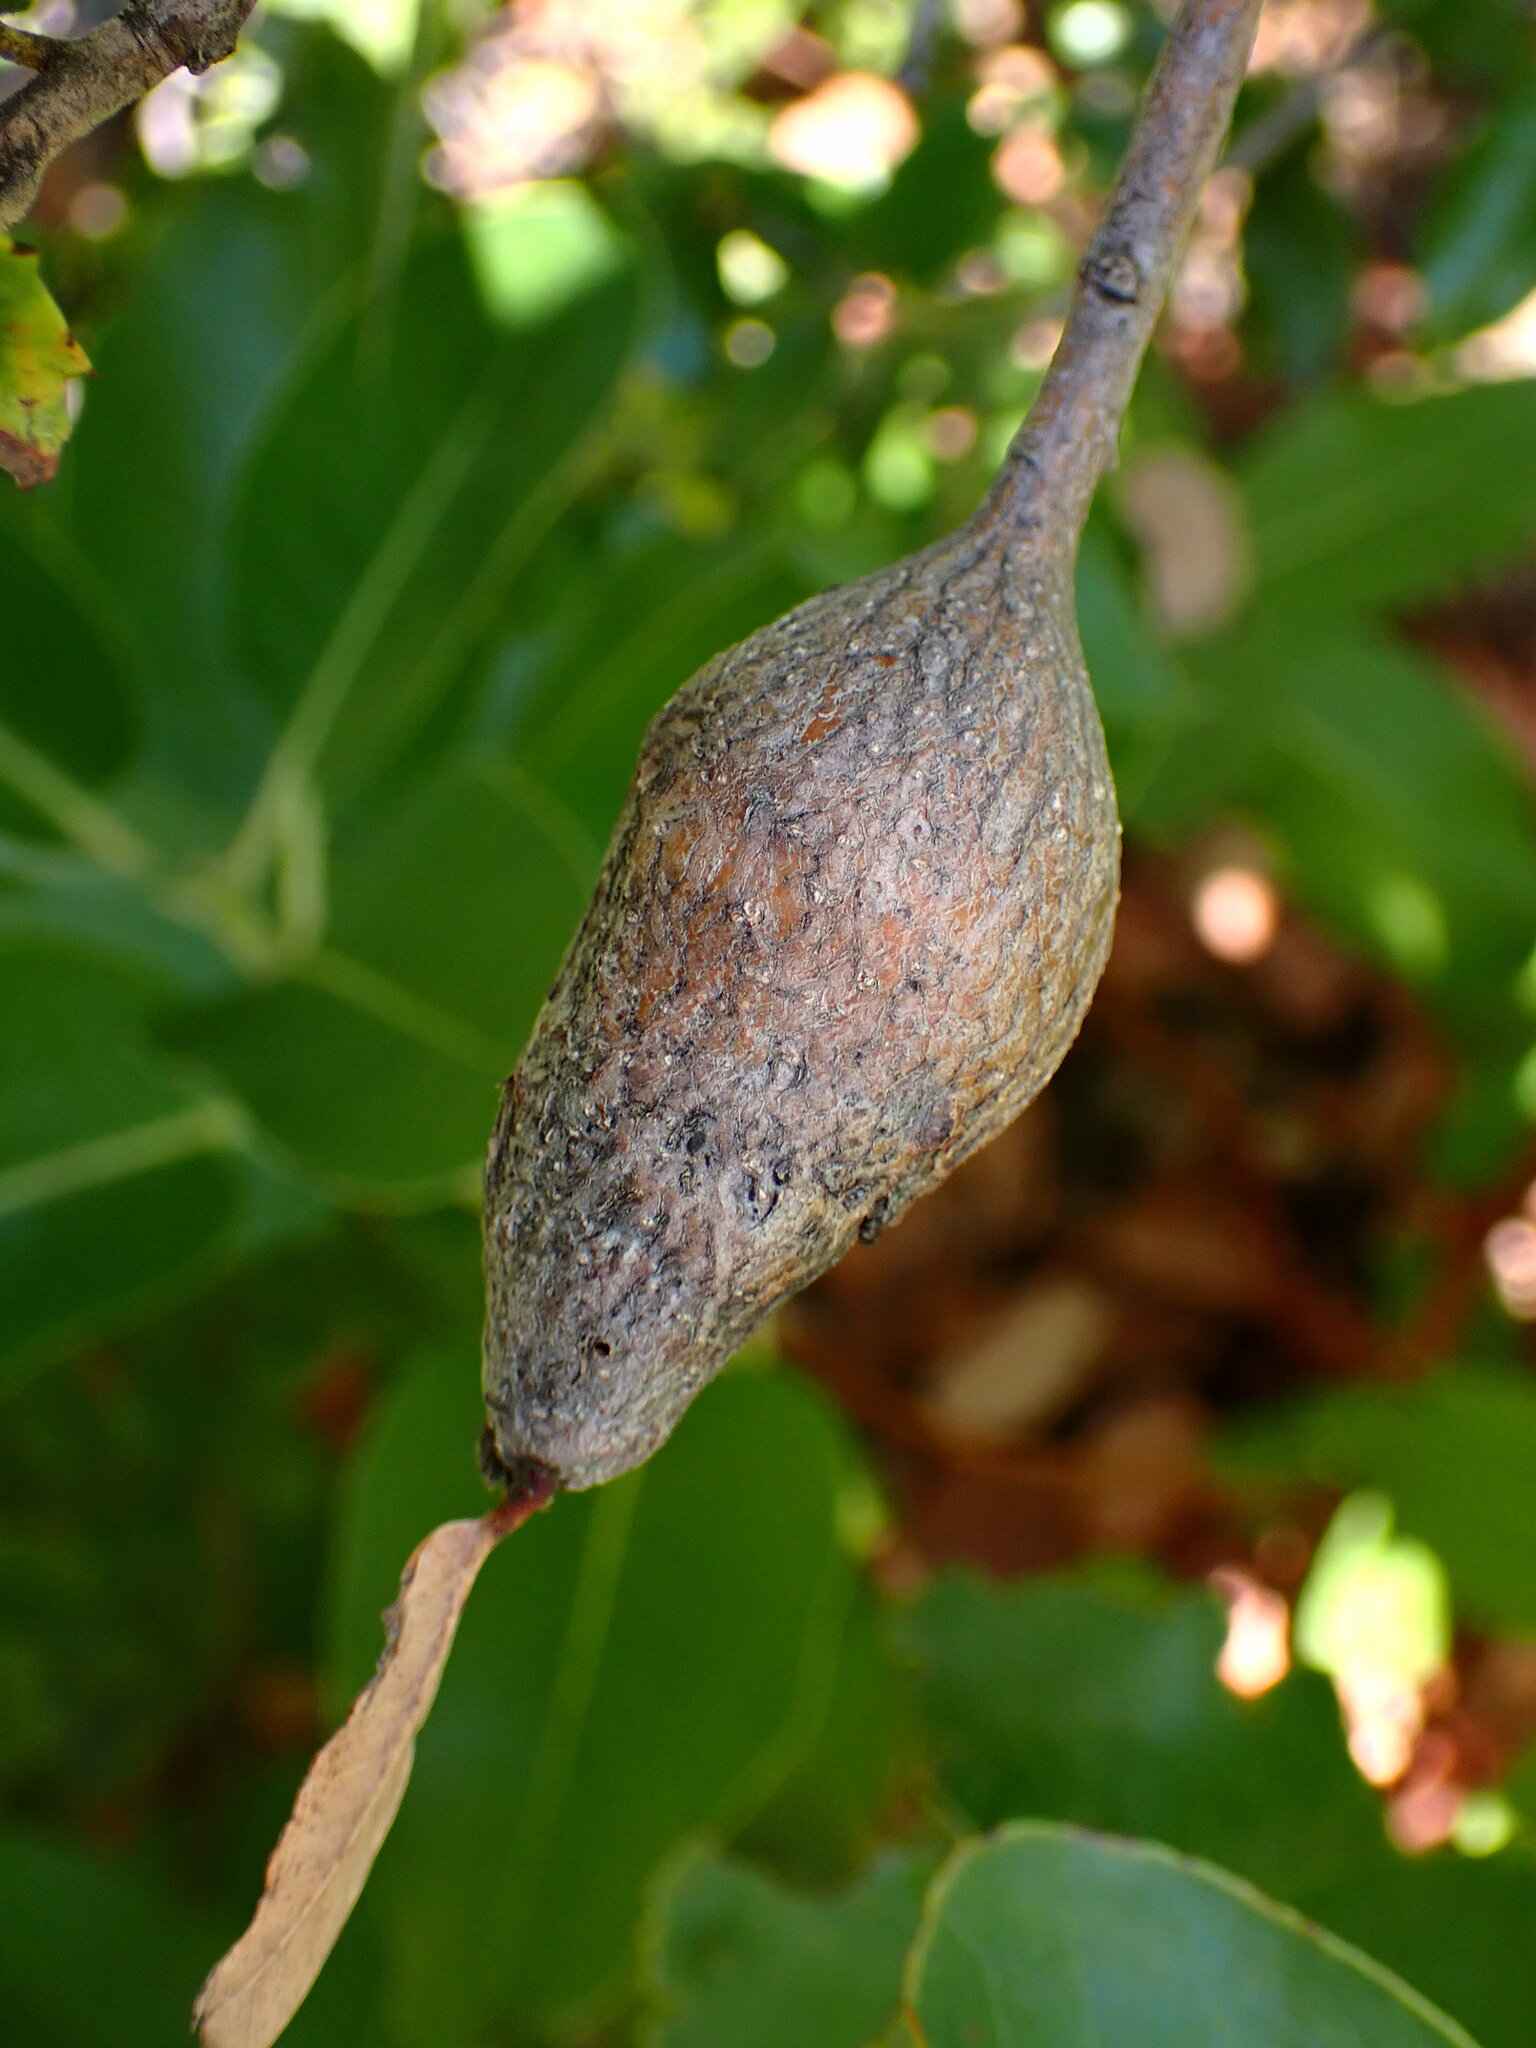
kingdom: Animalia
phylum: Arthropoda
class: Insecta
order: Hymenoptera
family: Cynipidae
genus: Disholcaspis
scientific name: Disholcaspis spectabilis
